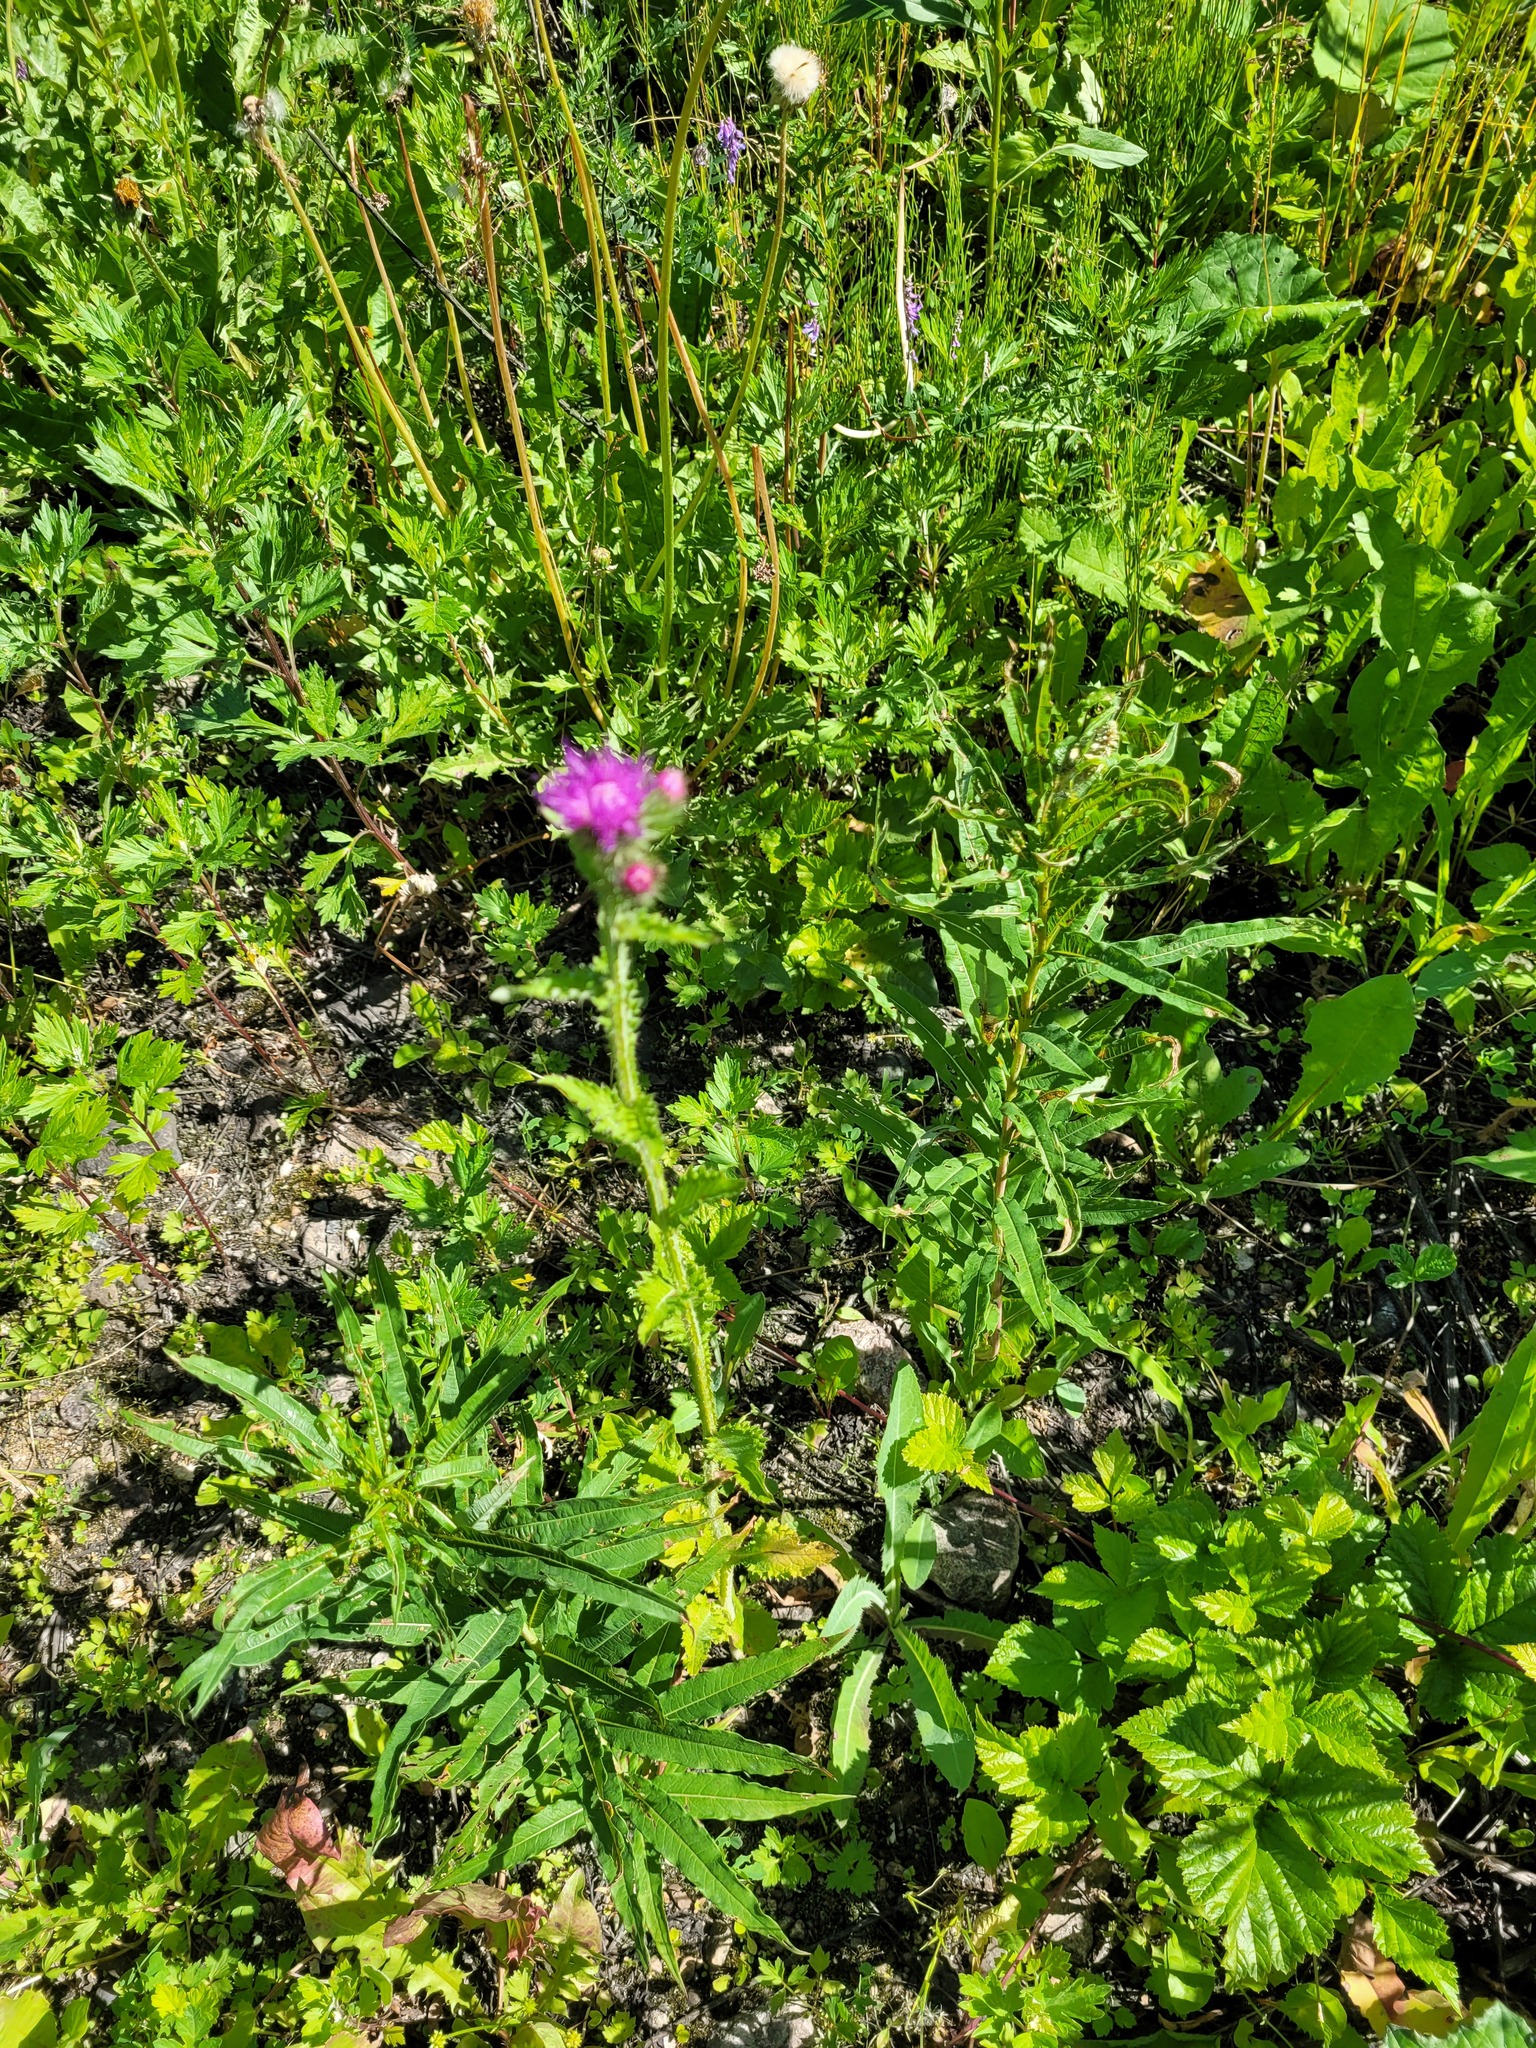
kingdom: Plantae
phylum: Tracheophyta
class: Magnoliopsida
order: Asterales
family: Asteraceae
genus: Carduus
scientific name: Carduus crispus
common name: Welted thistle
